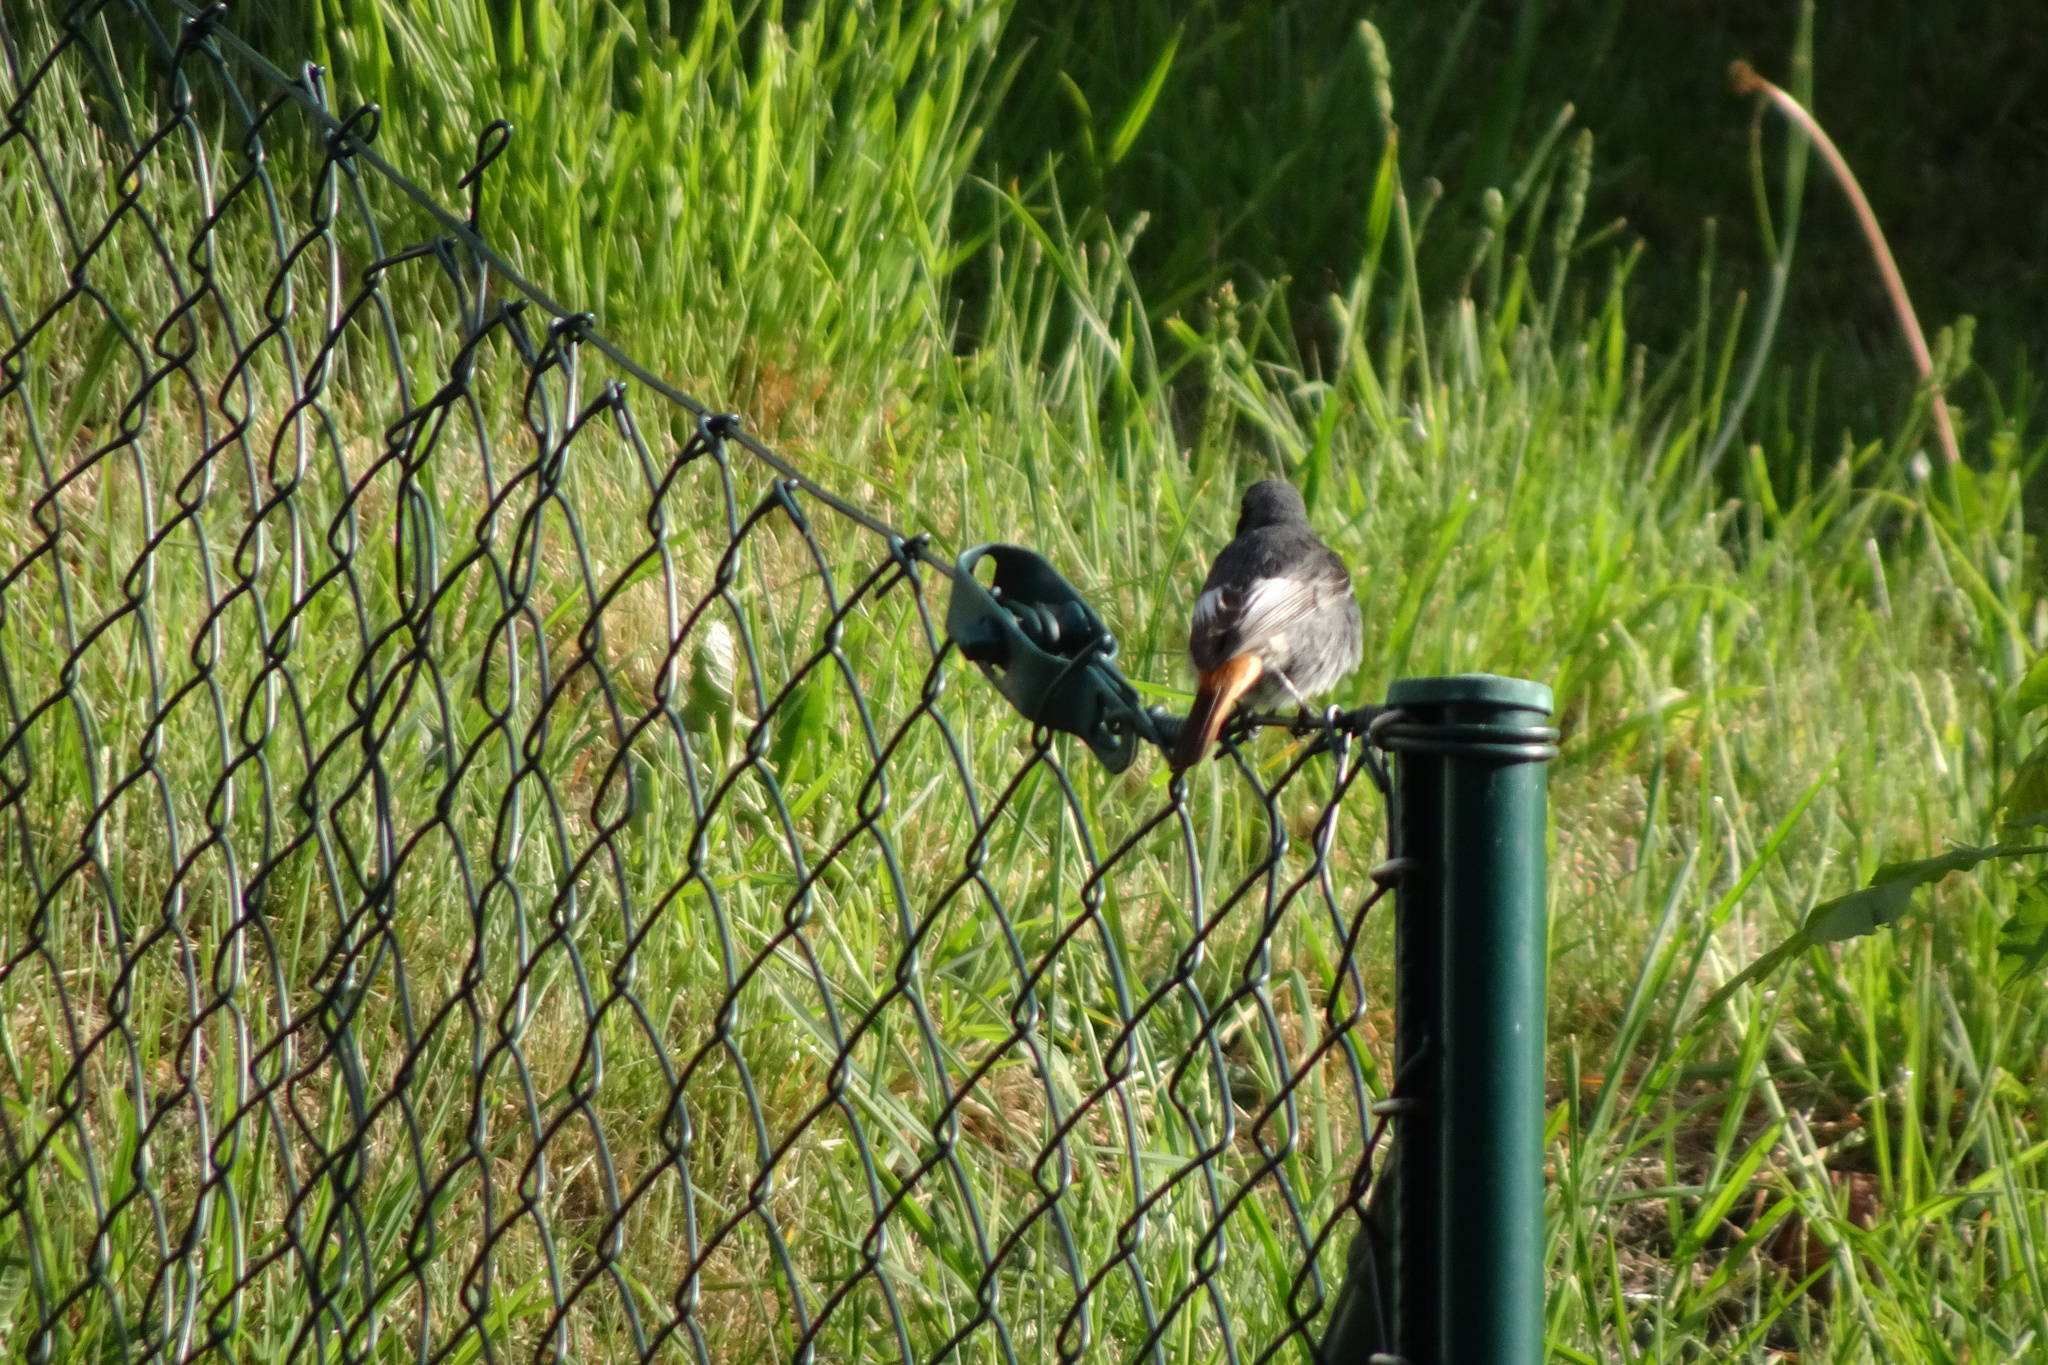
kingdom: Animalia
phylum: Chordata
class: Aves
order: Passeriformes
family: Muscicapidae
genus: Phoenicurus
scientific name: Phoenicurus ochruros
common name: Black redstart
